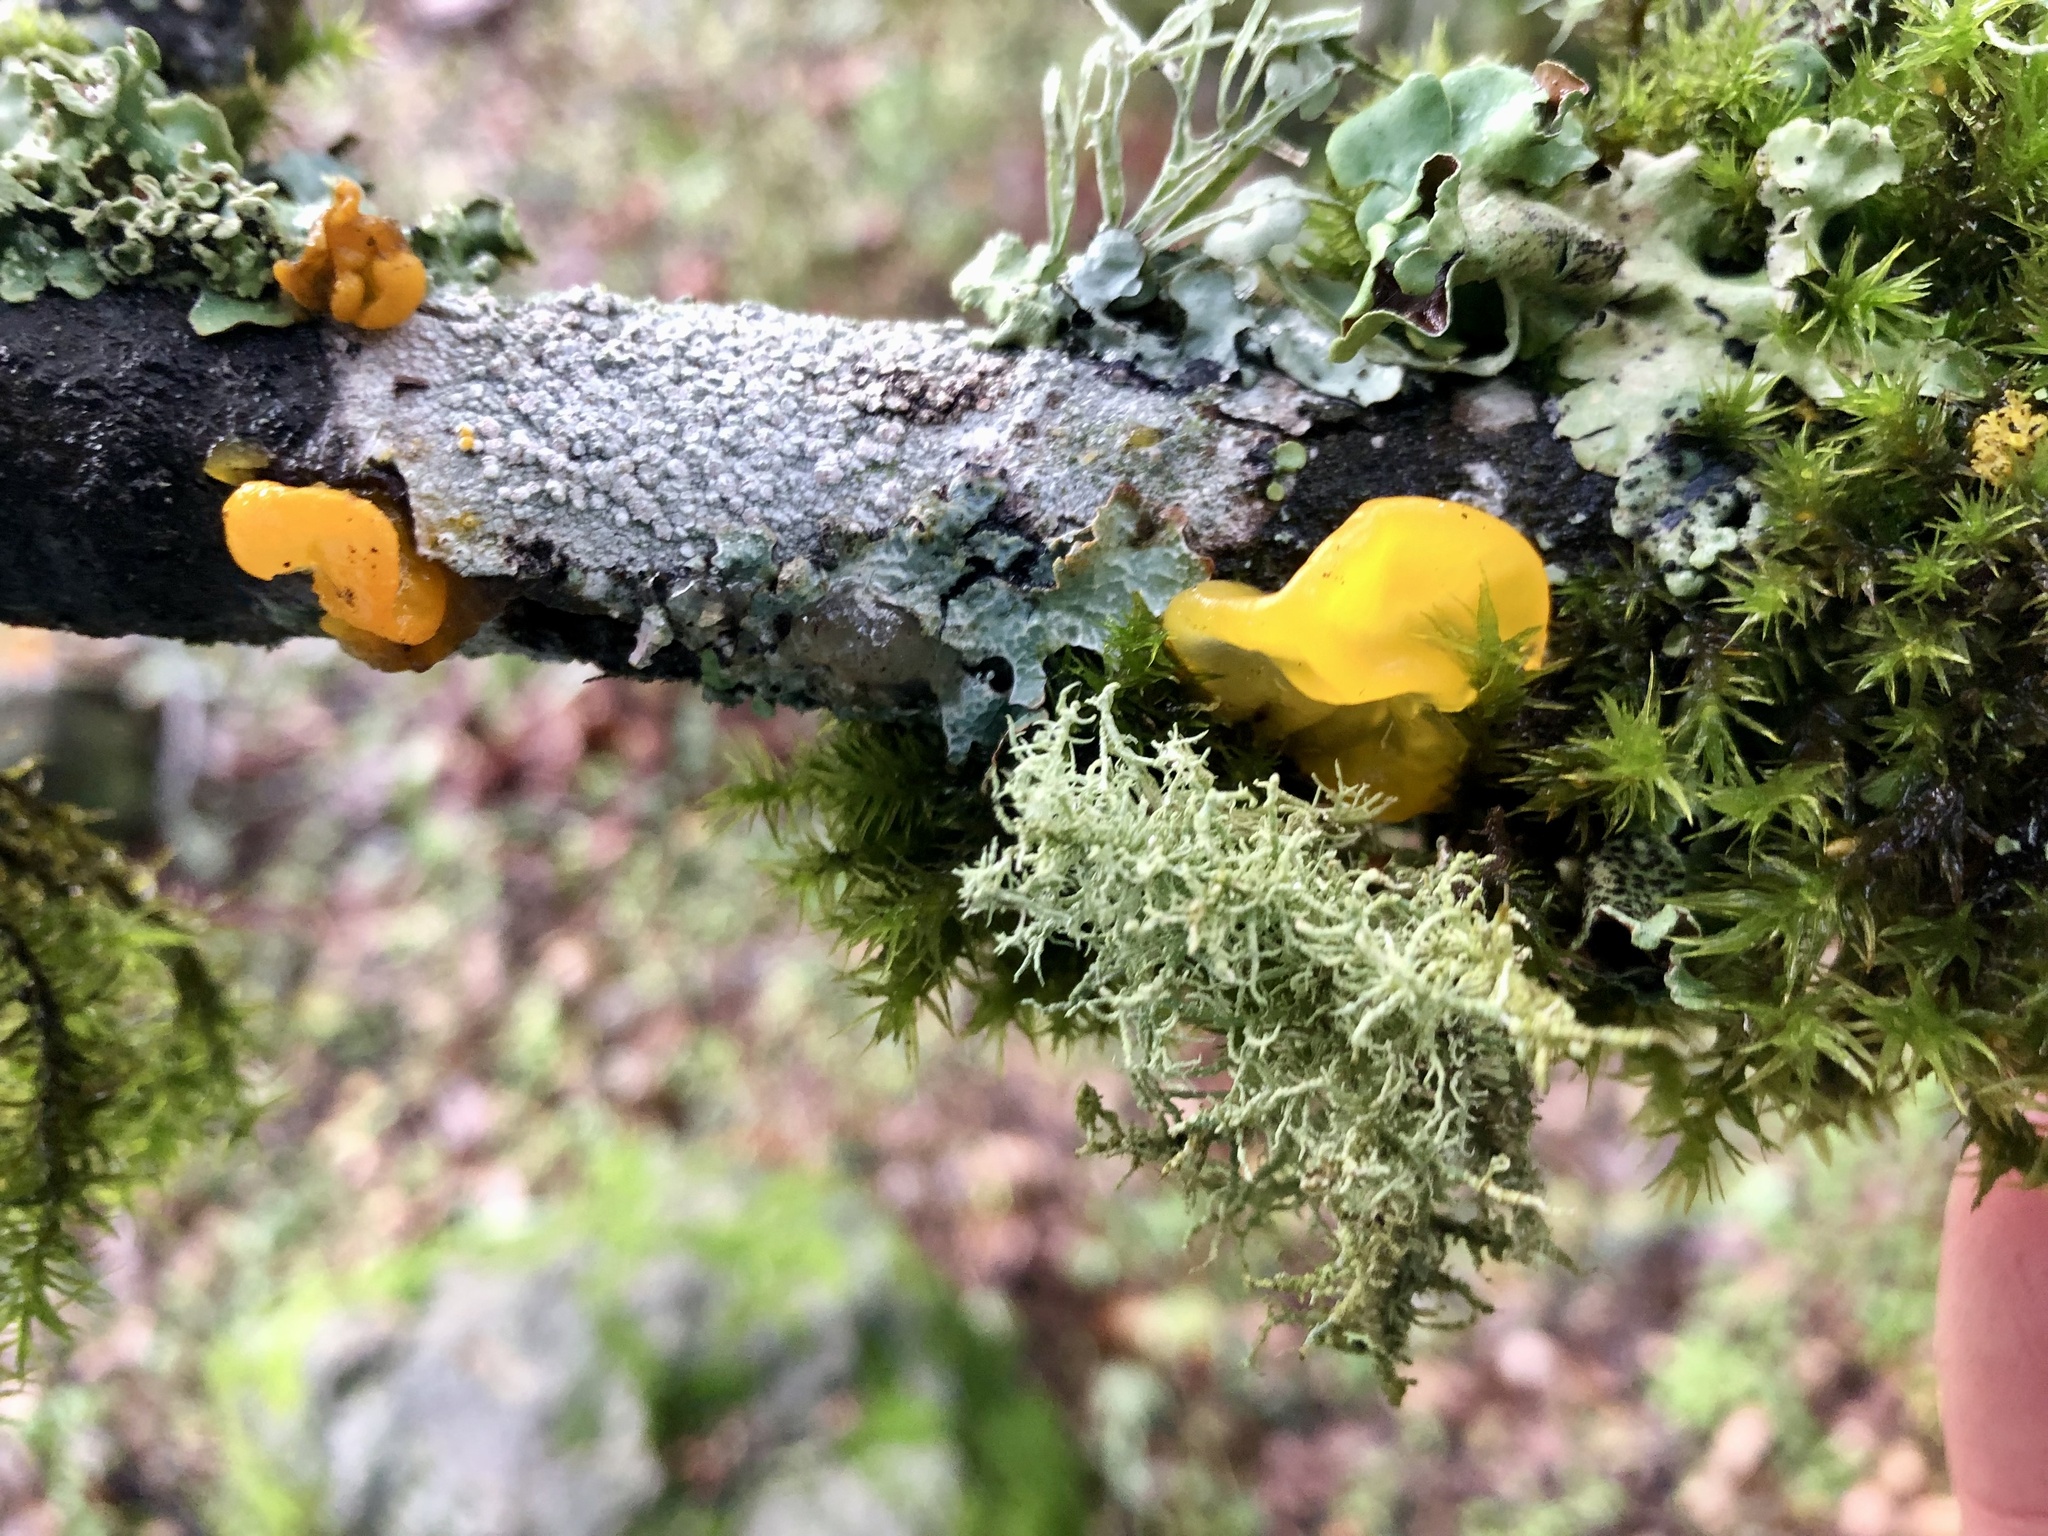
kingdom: Fungi
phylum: Basidiomycota
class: Tremellomycetes
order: Tremellales
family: Tremellaceae
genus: Tremella
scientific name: Tremella mesenterica
